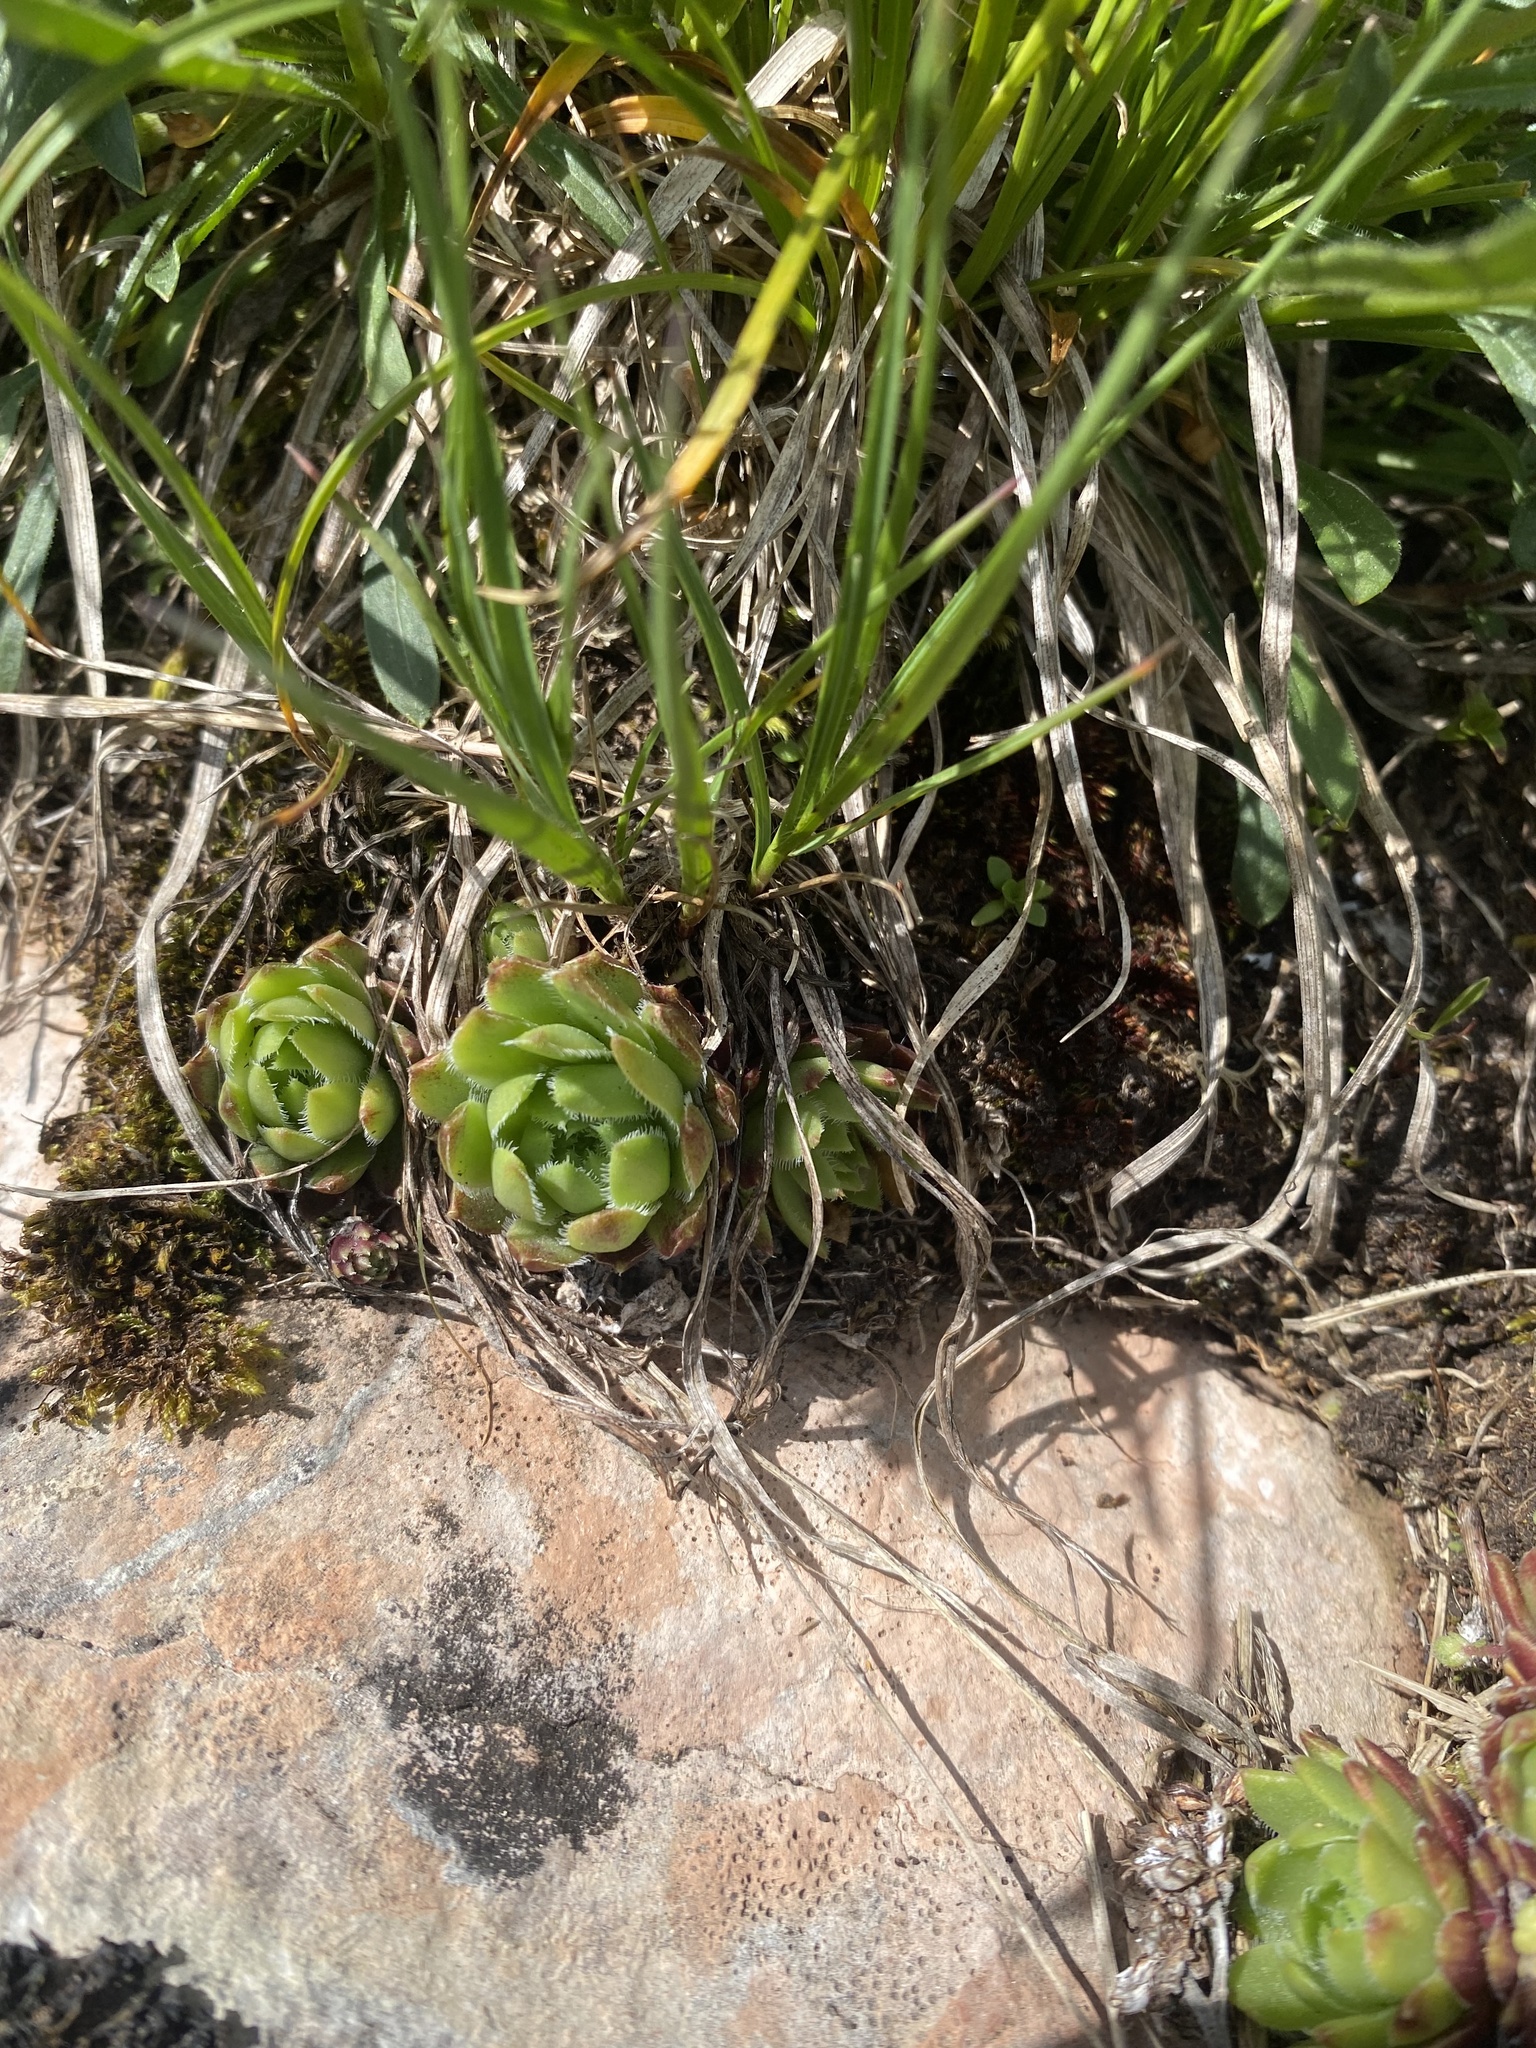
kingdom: Plantae
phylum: Tracheophyta
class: Magnoliopsida
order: Saxifragales
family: Crassulaceae
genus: Sempervivum
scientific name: Sempervivum caucasicum
